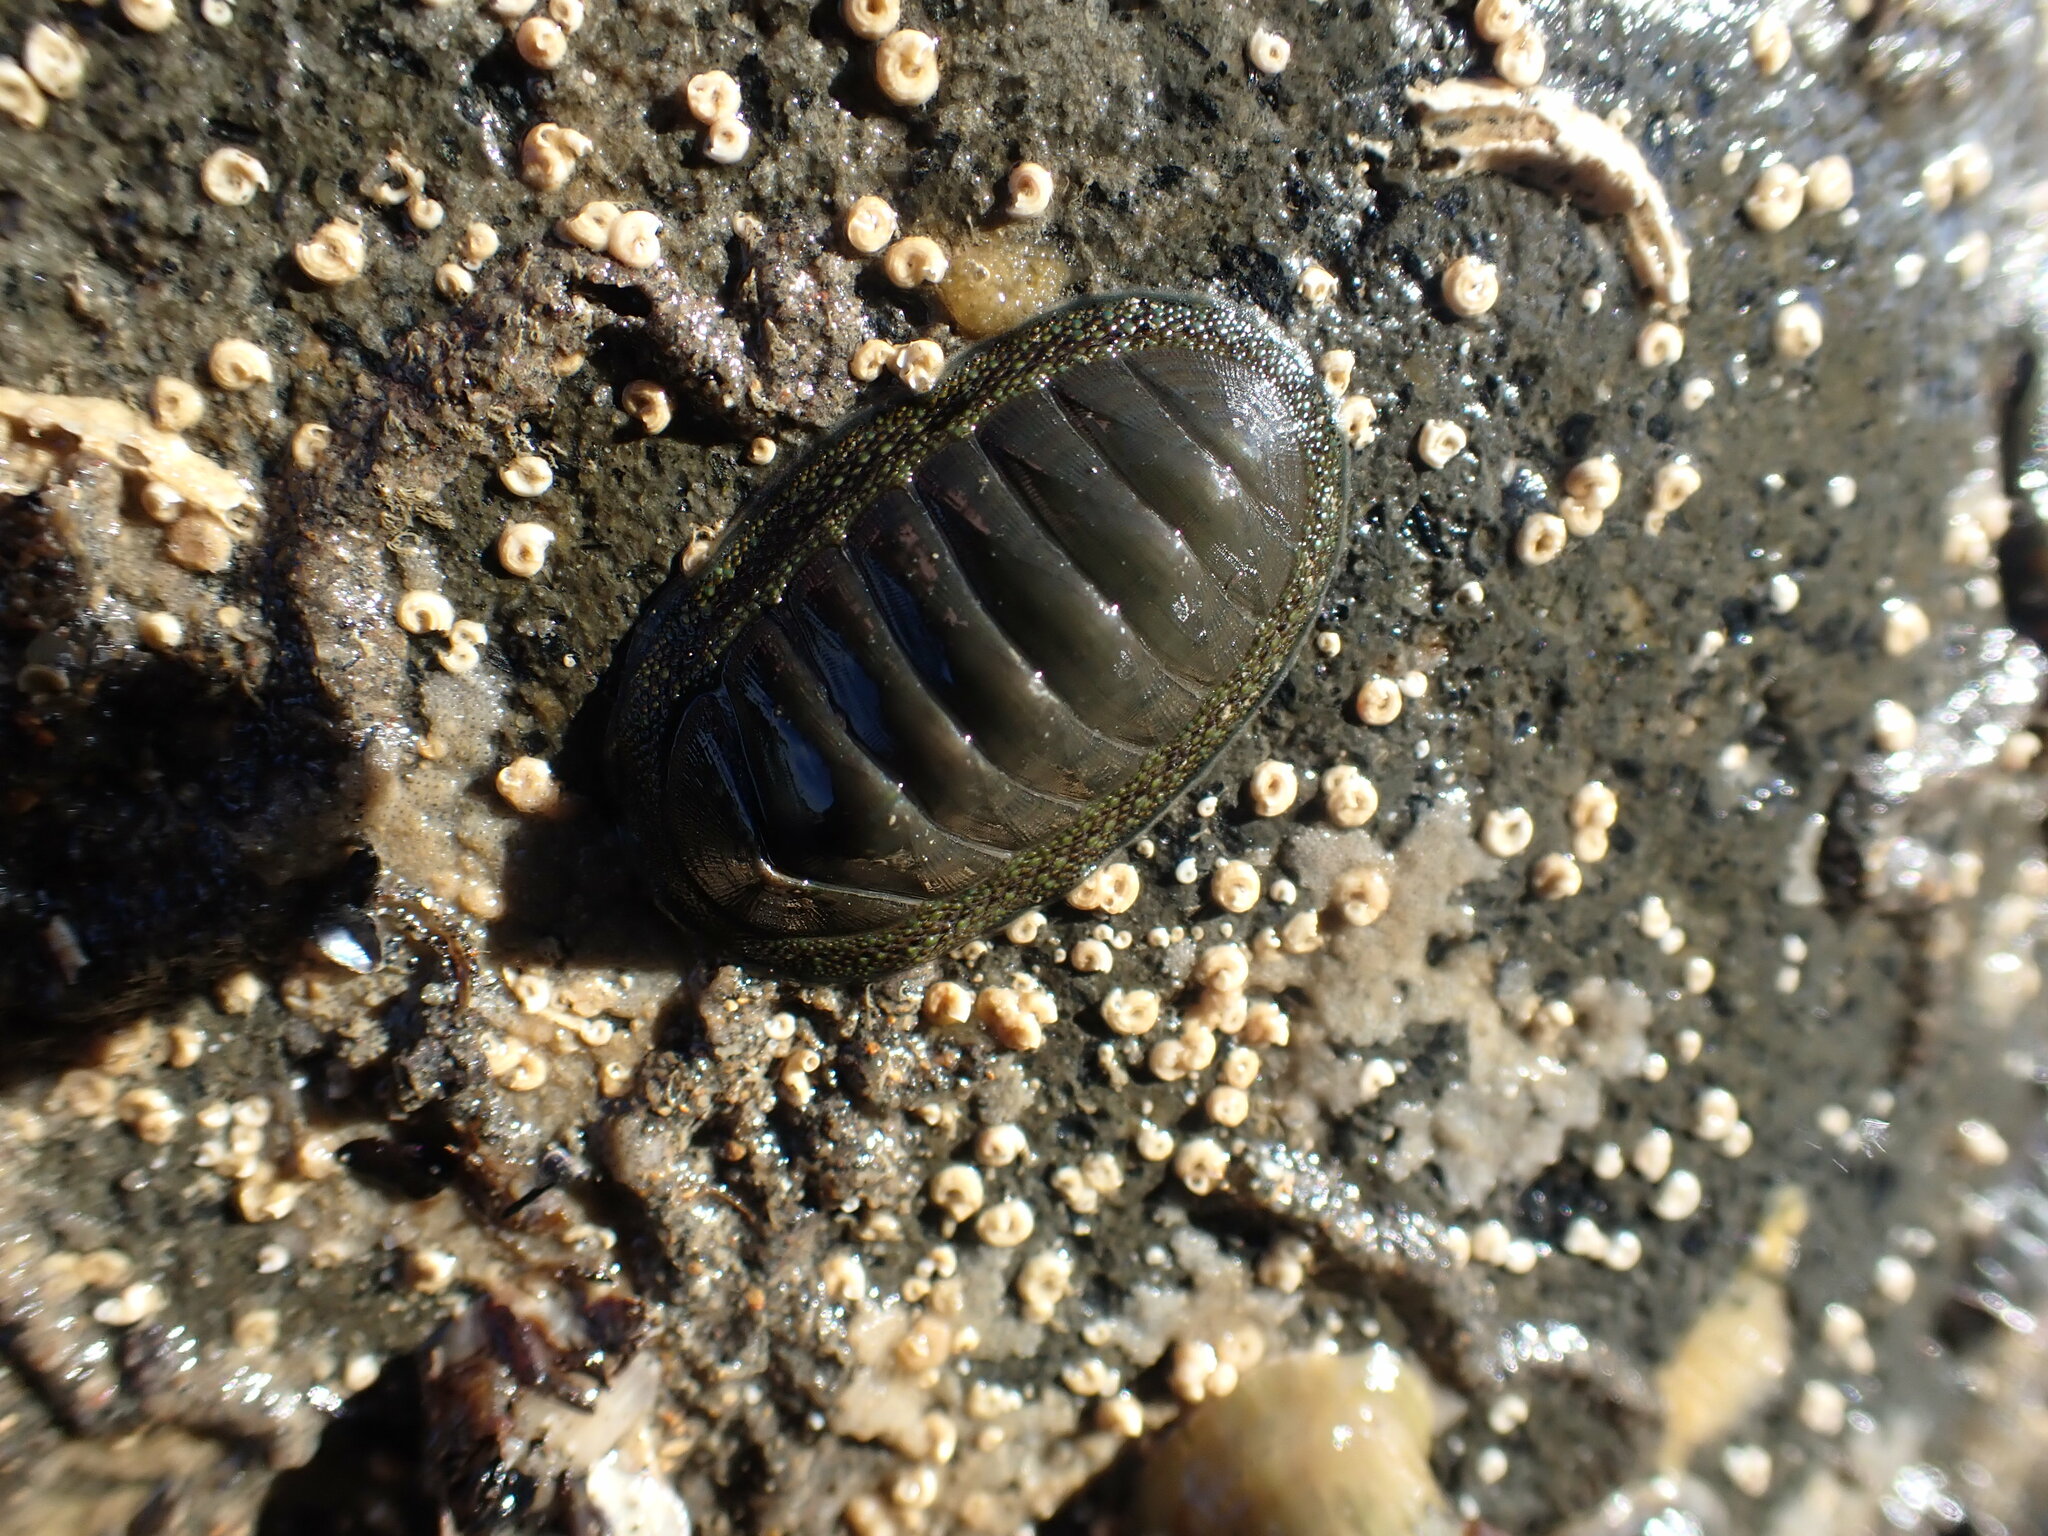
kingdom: Animalia
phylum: Mollusca
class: Polyplacophora
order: Chitonida
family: Chitonidae
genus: Chiton
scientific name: Chiton glaucus
